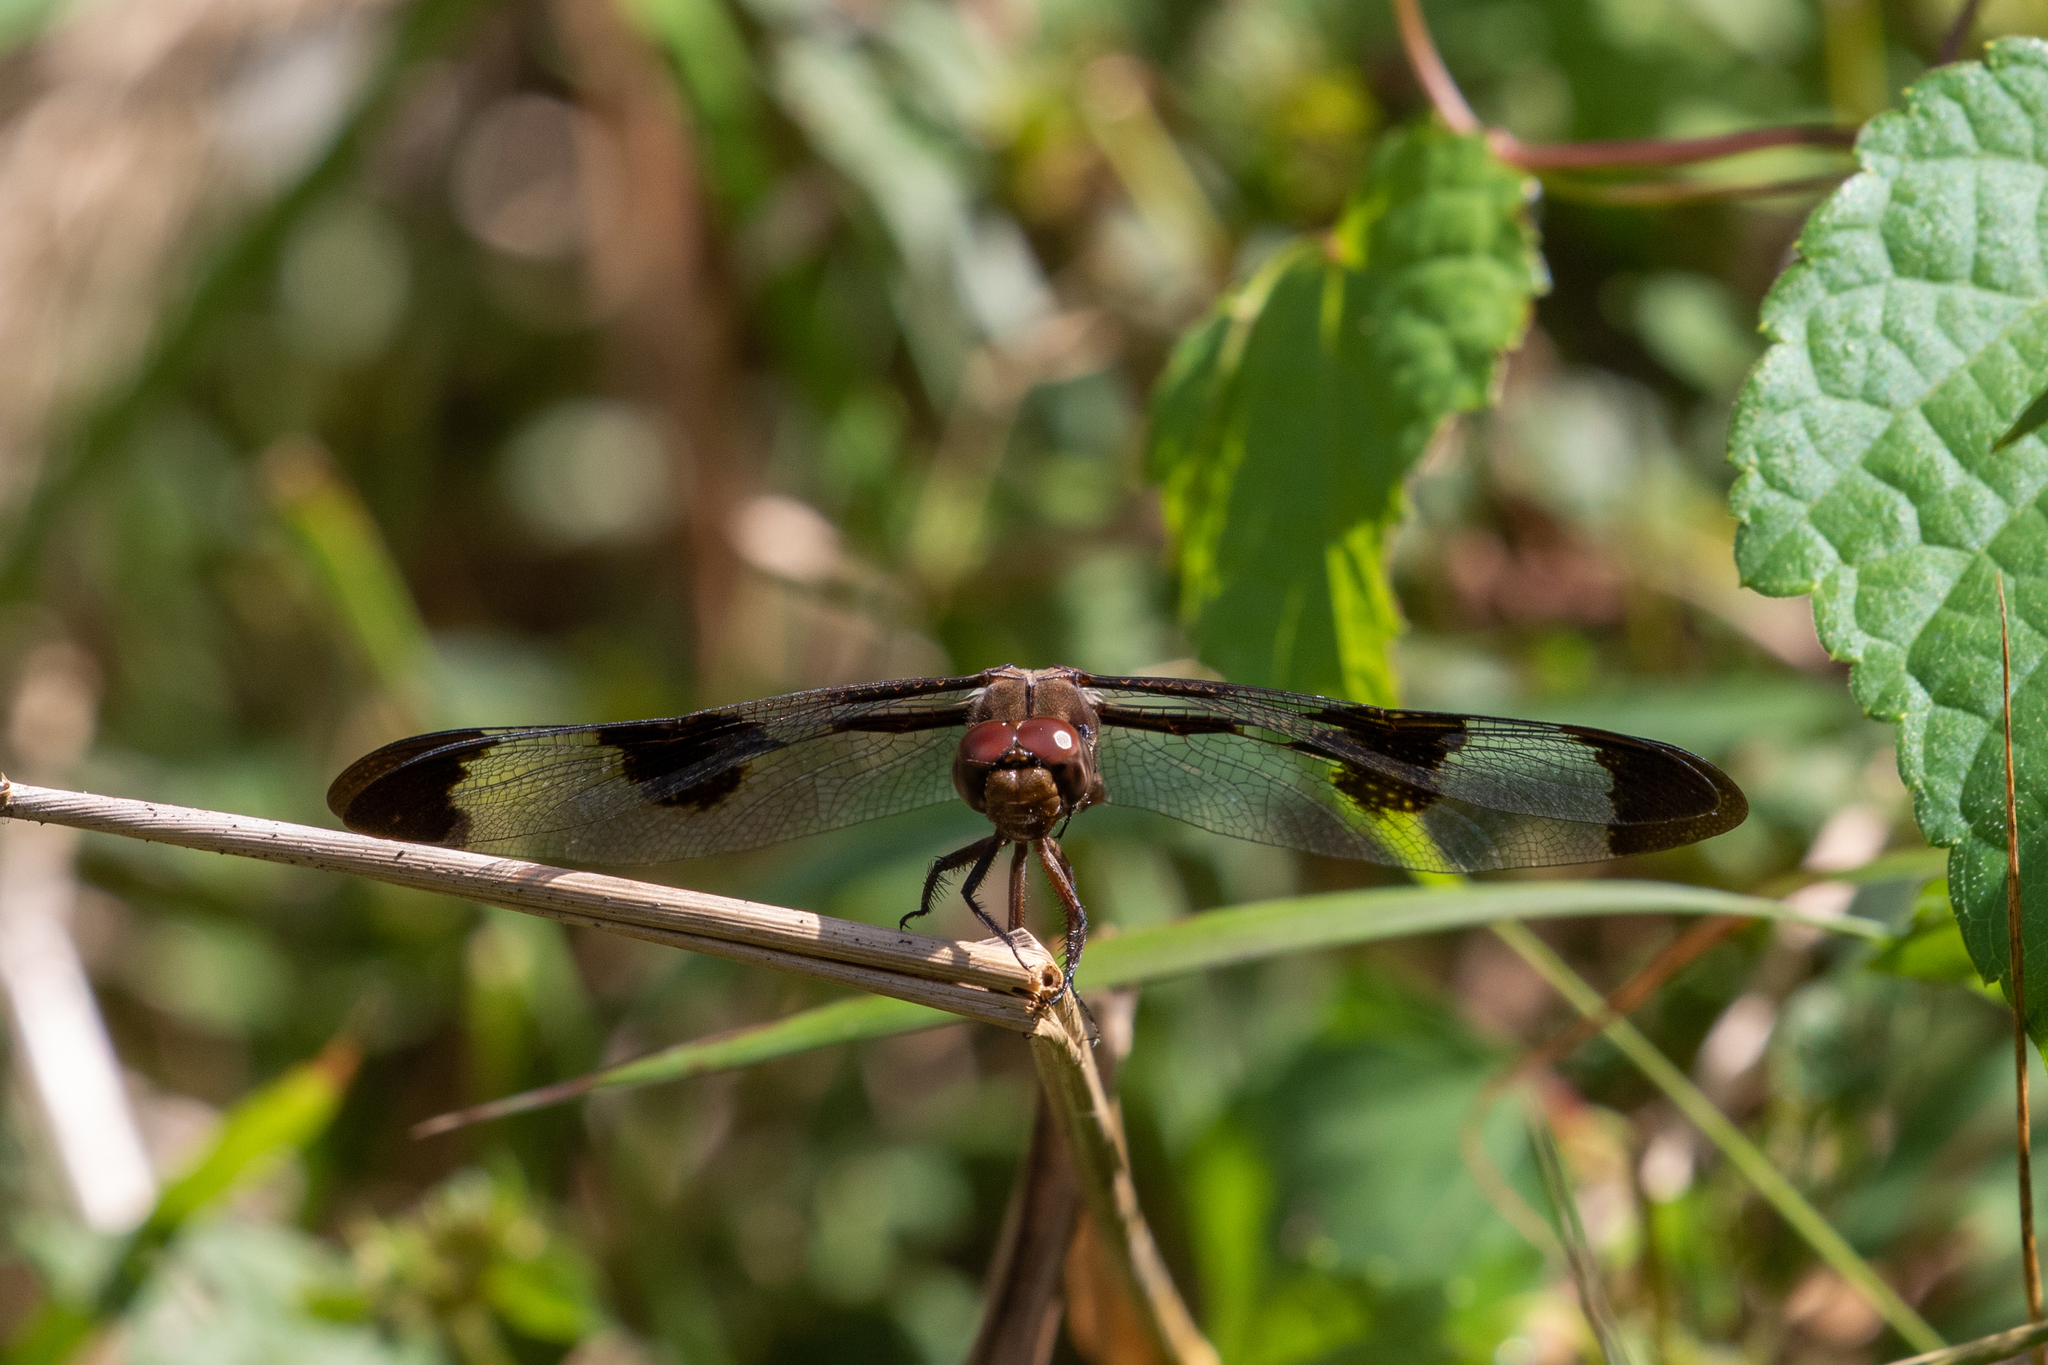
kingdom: Animalia
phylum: Arthropoda
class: Insecta
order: Odonata
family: Libellulidae
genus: Plathemis
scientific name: Plathemis lydia
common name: Common whitetail
